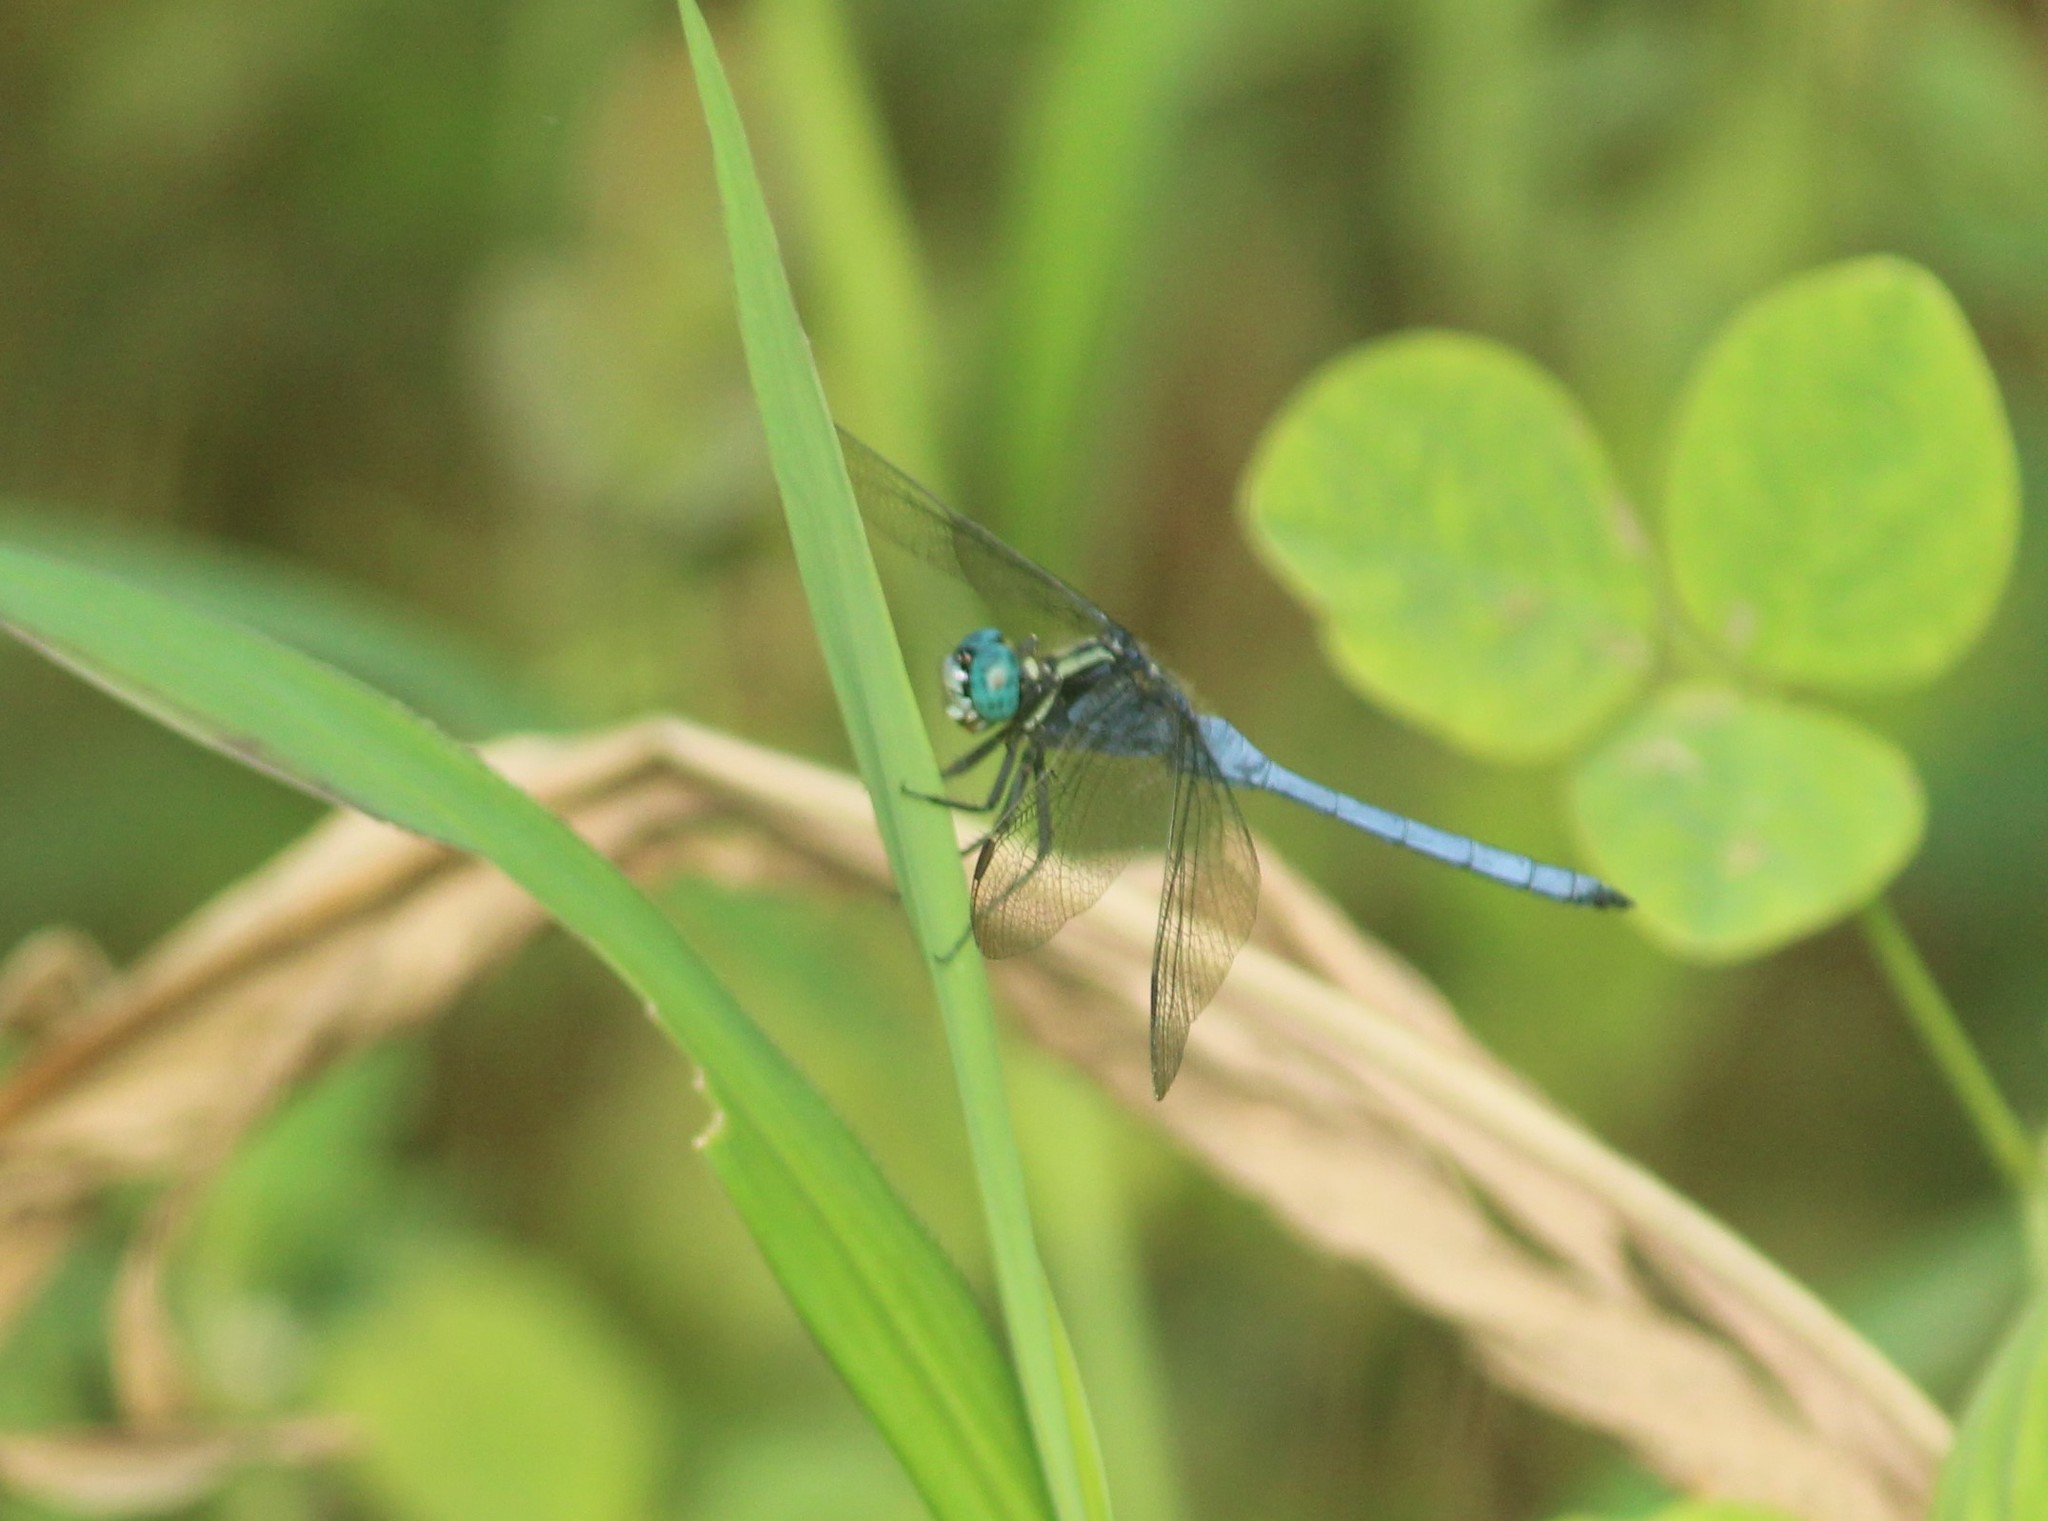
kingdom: Animalia
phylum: Arthropoda
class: Insecta
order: Odonata
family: Libellulidae
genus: Orthetrum
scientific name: Orthetrum luzonicum
